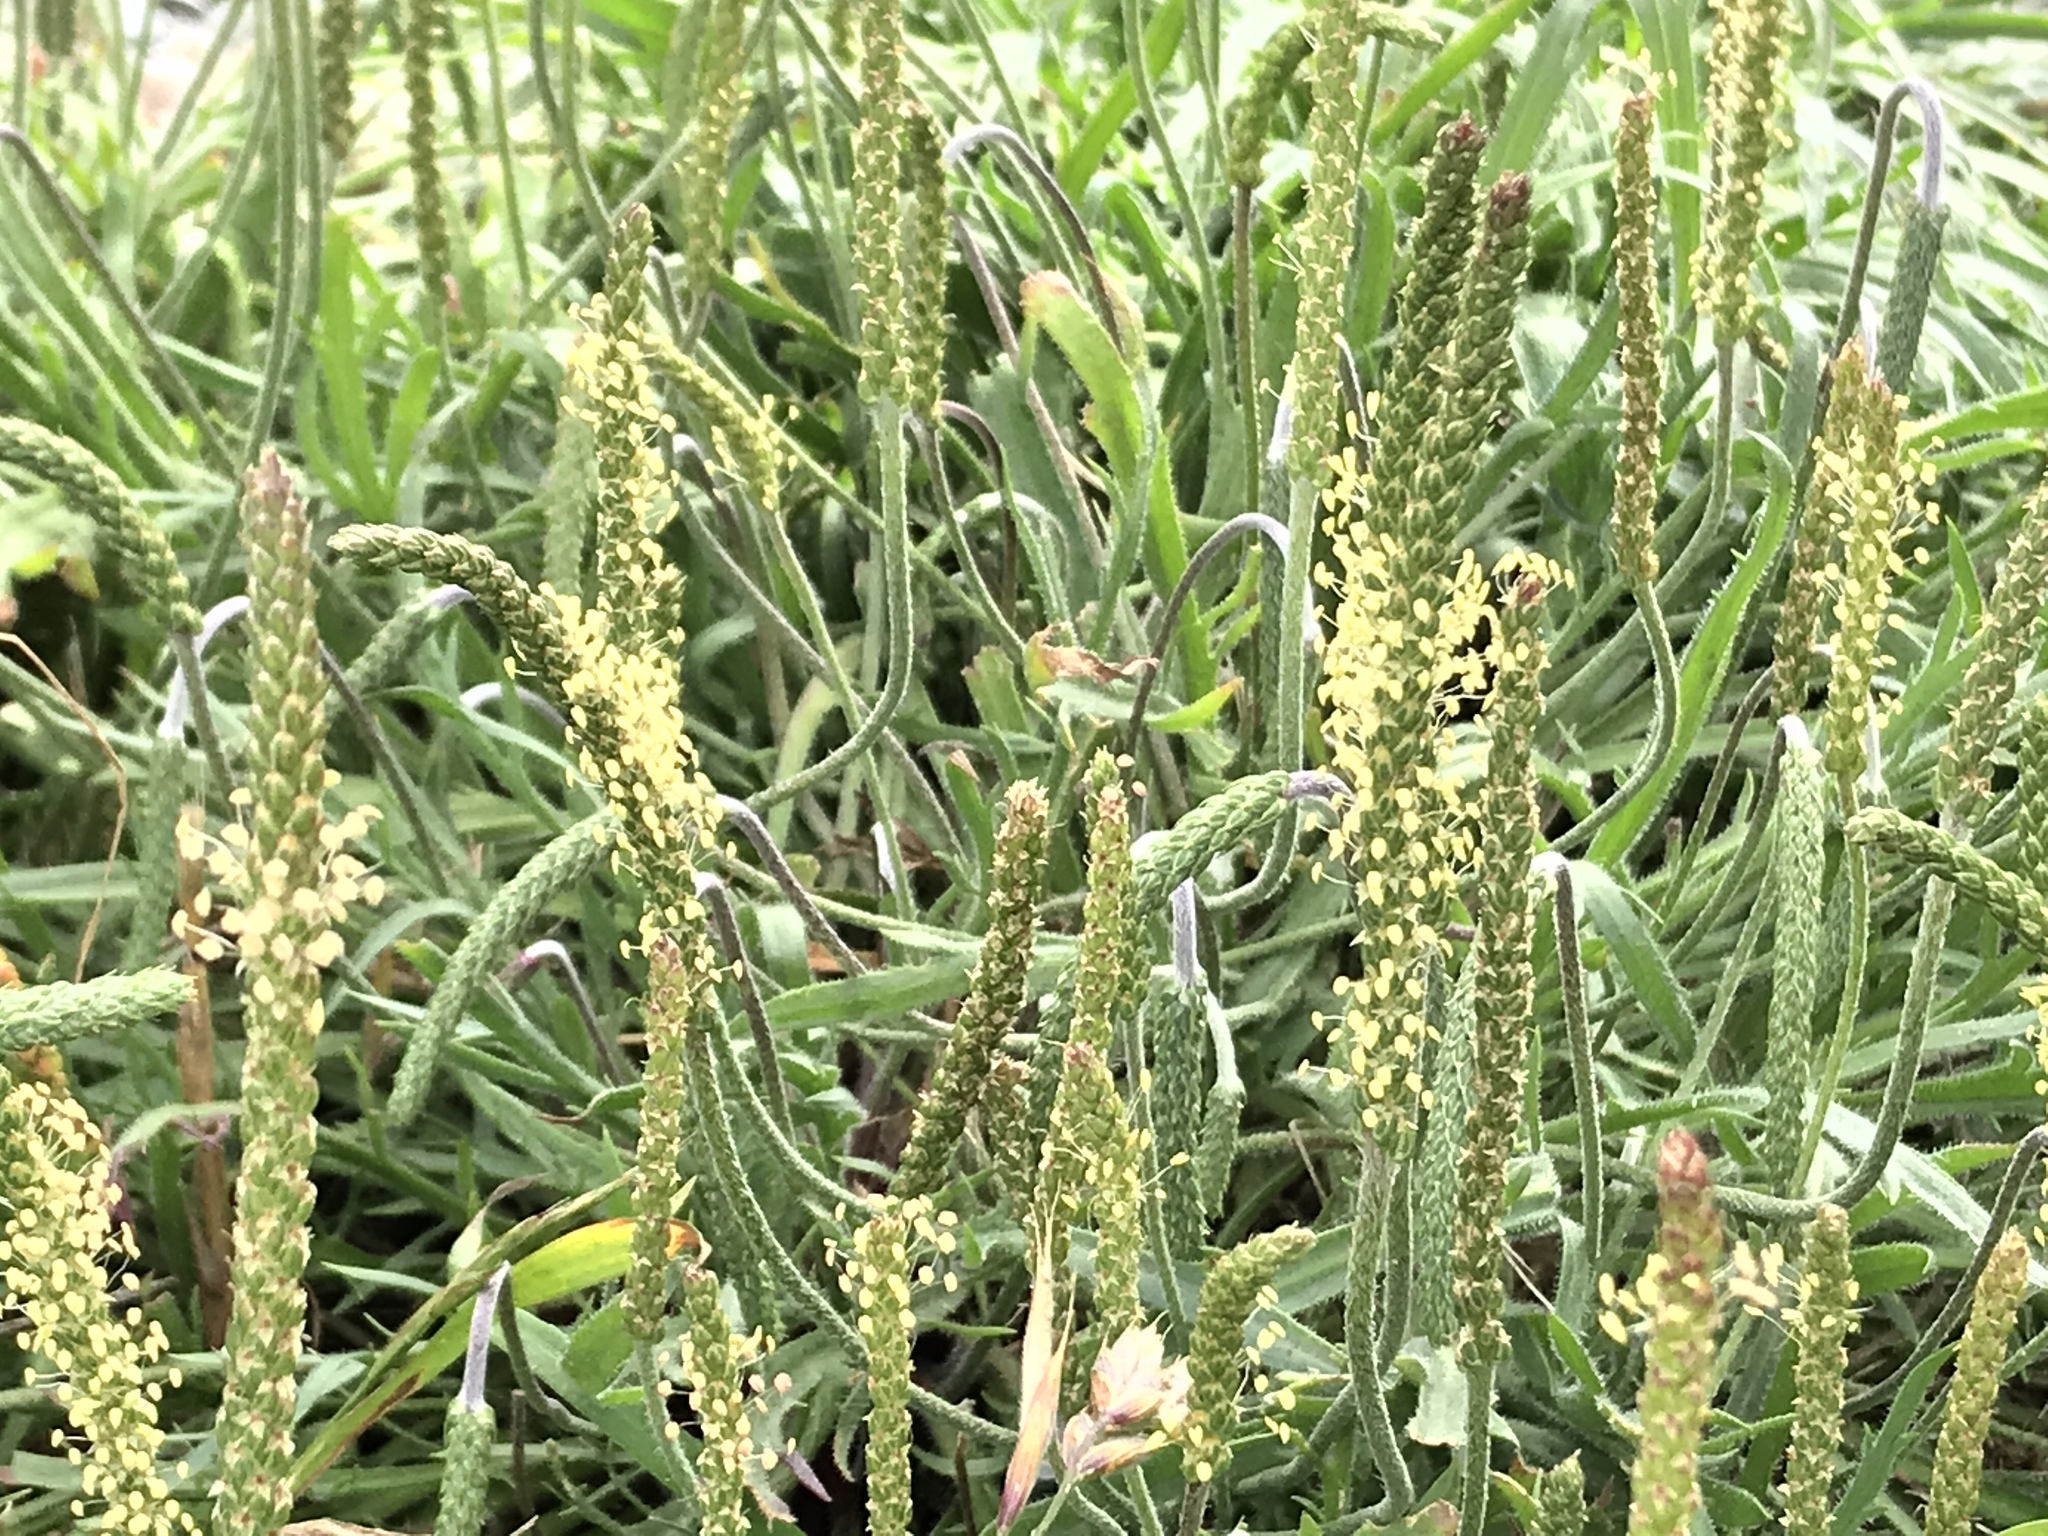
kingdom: Plantae
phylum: Tracheophyta
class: Magnoliopsida
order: Lamiales
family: Plantaginaceae
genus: Plantago
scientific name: Plantago coronopus
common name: Buck's-horn plantain
